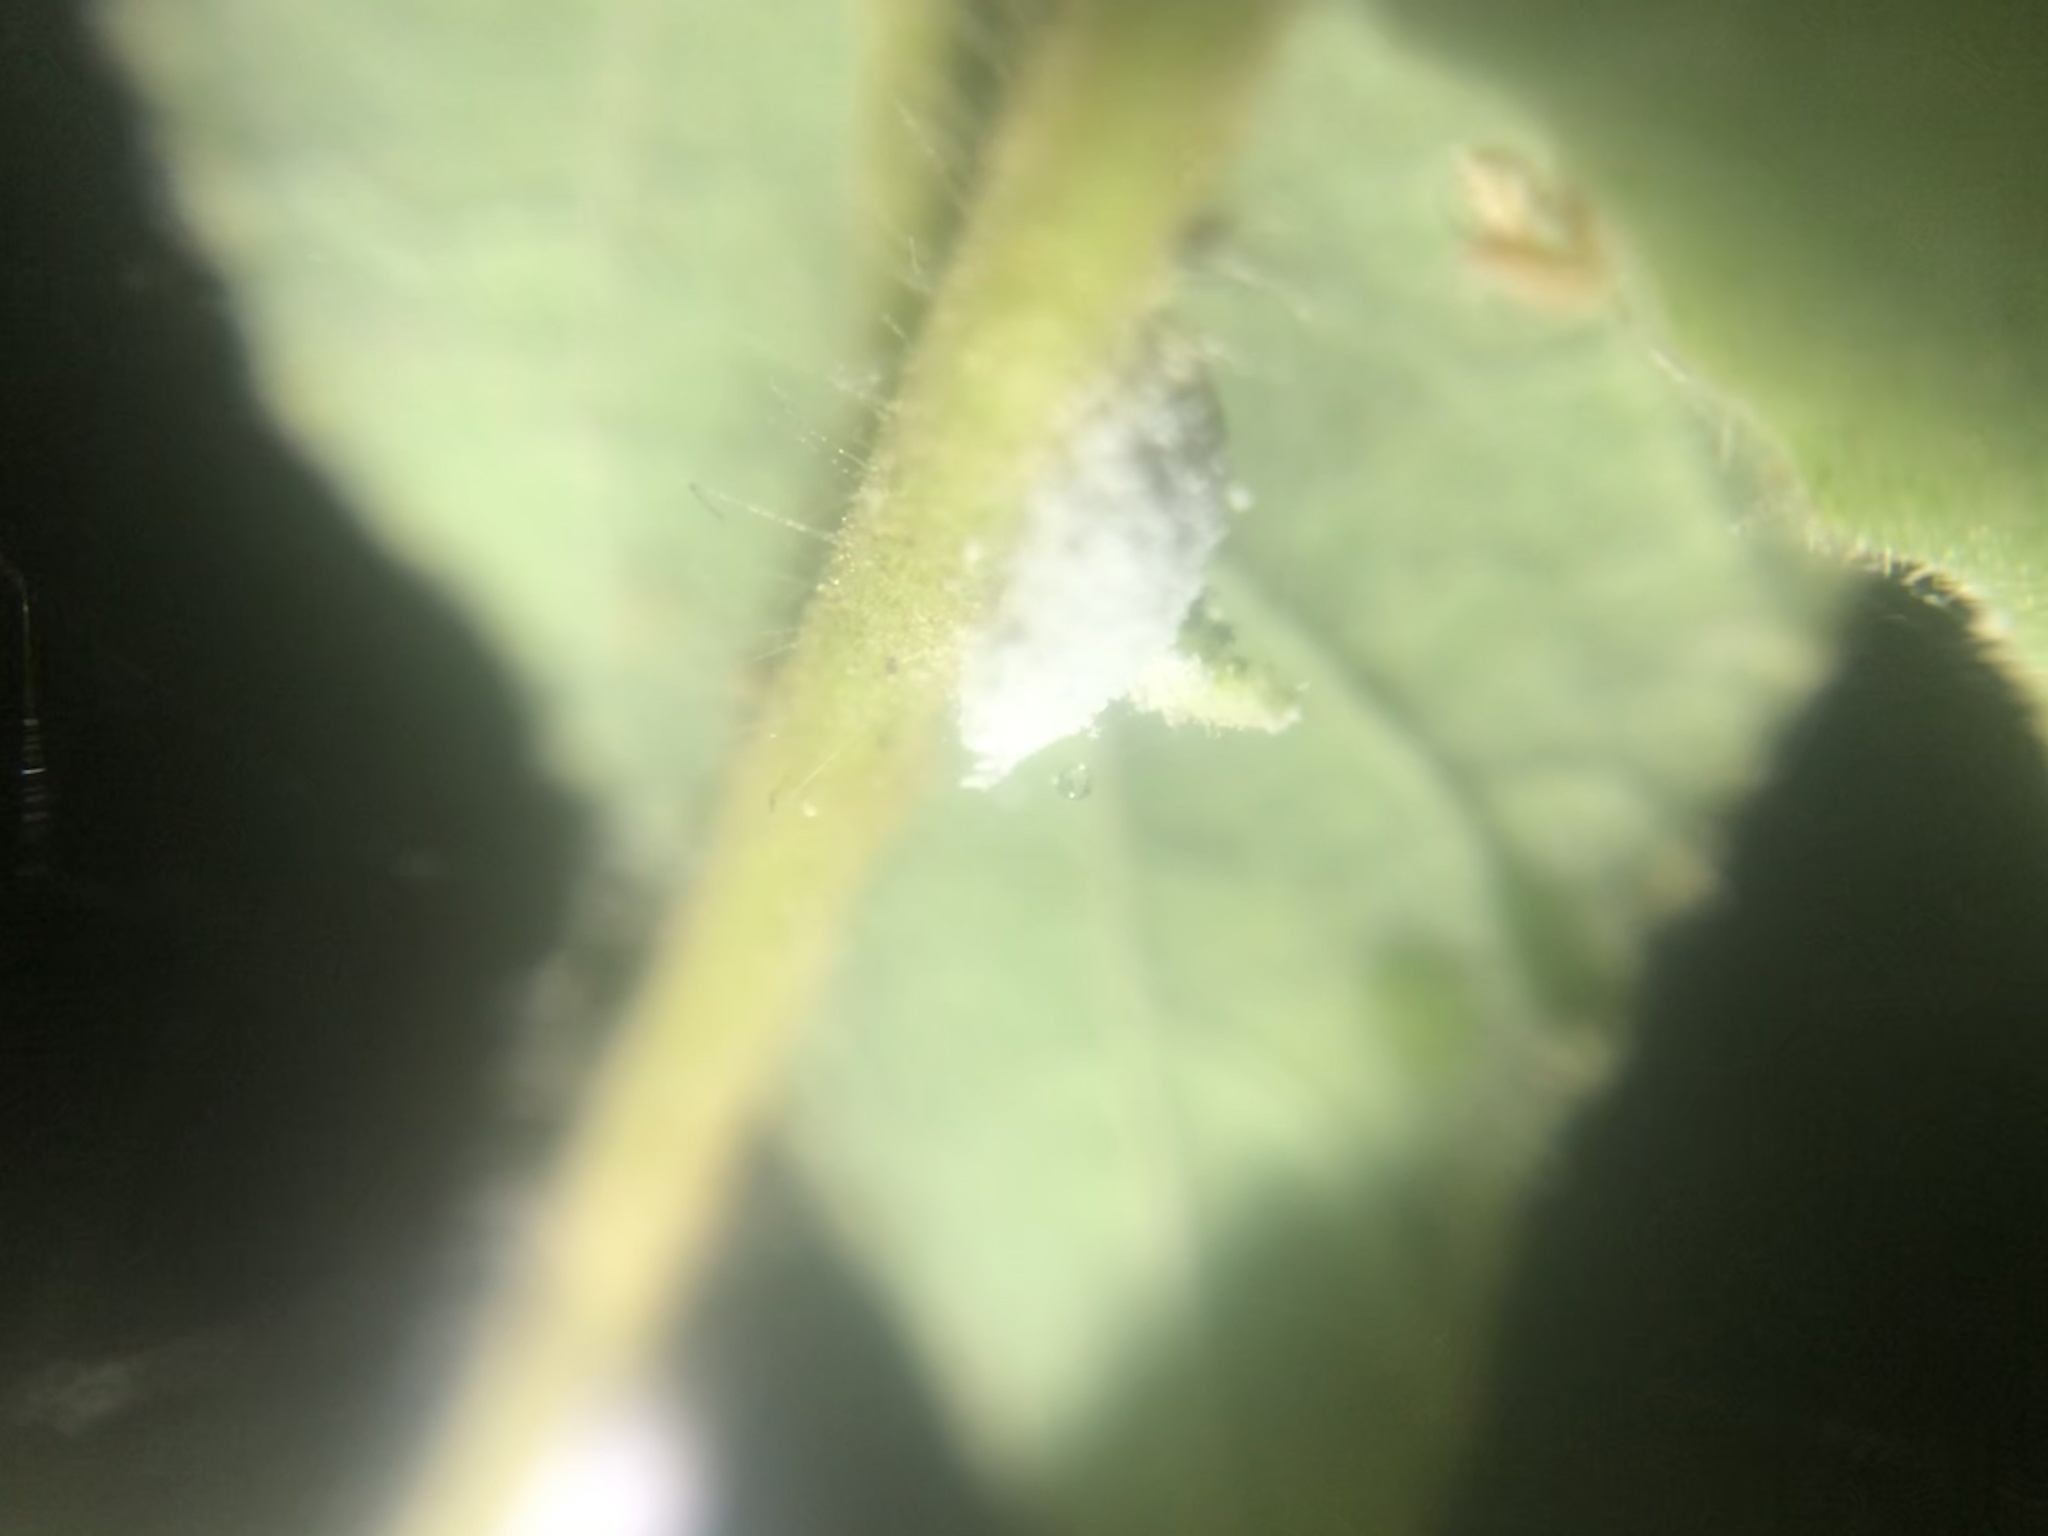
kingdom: Animalia
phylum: Arthropoda
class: Insecta
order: Hemiptera
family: Pseudococcidae
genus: Phenacoccus
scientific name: Phenacoccus solenopsis
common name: Solenopsis mealybug
